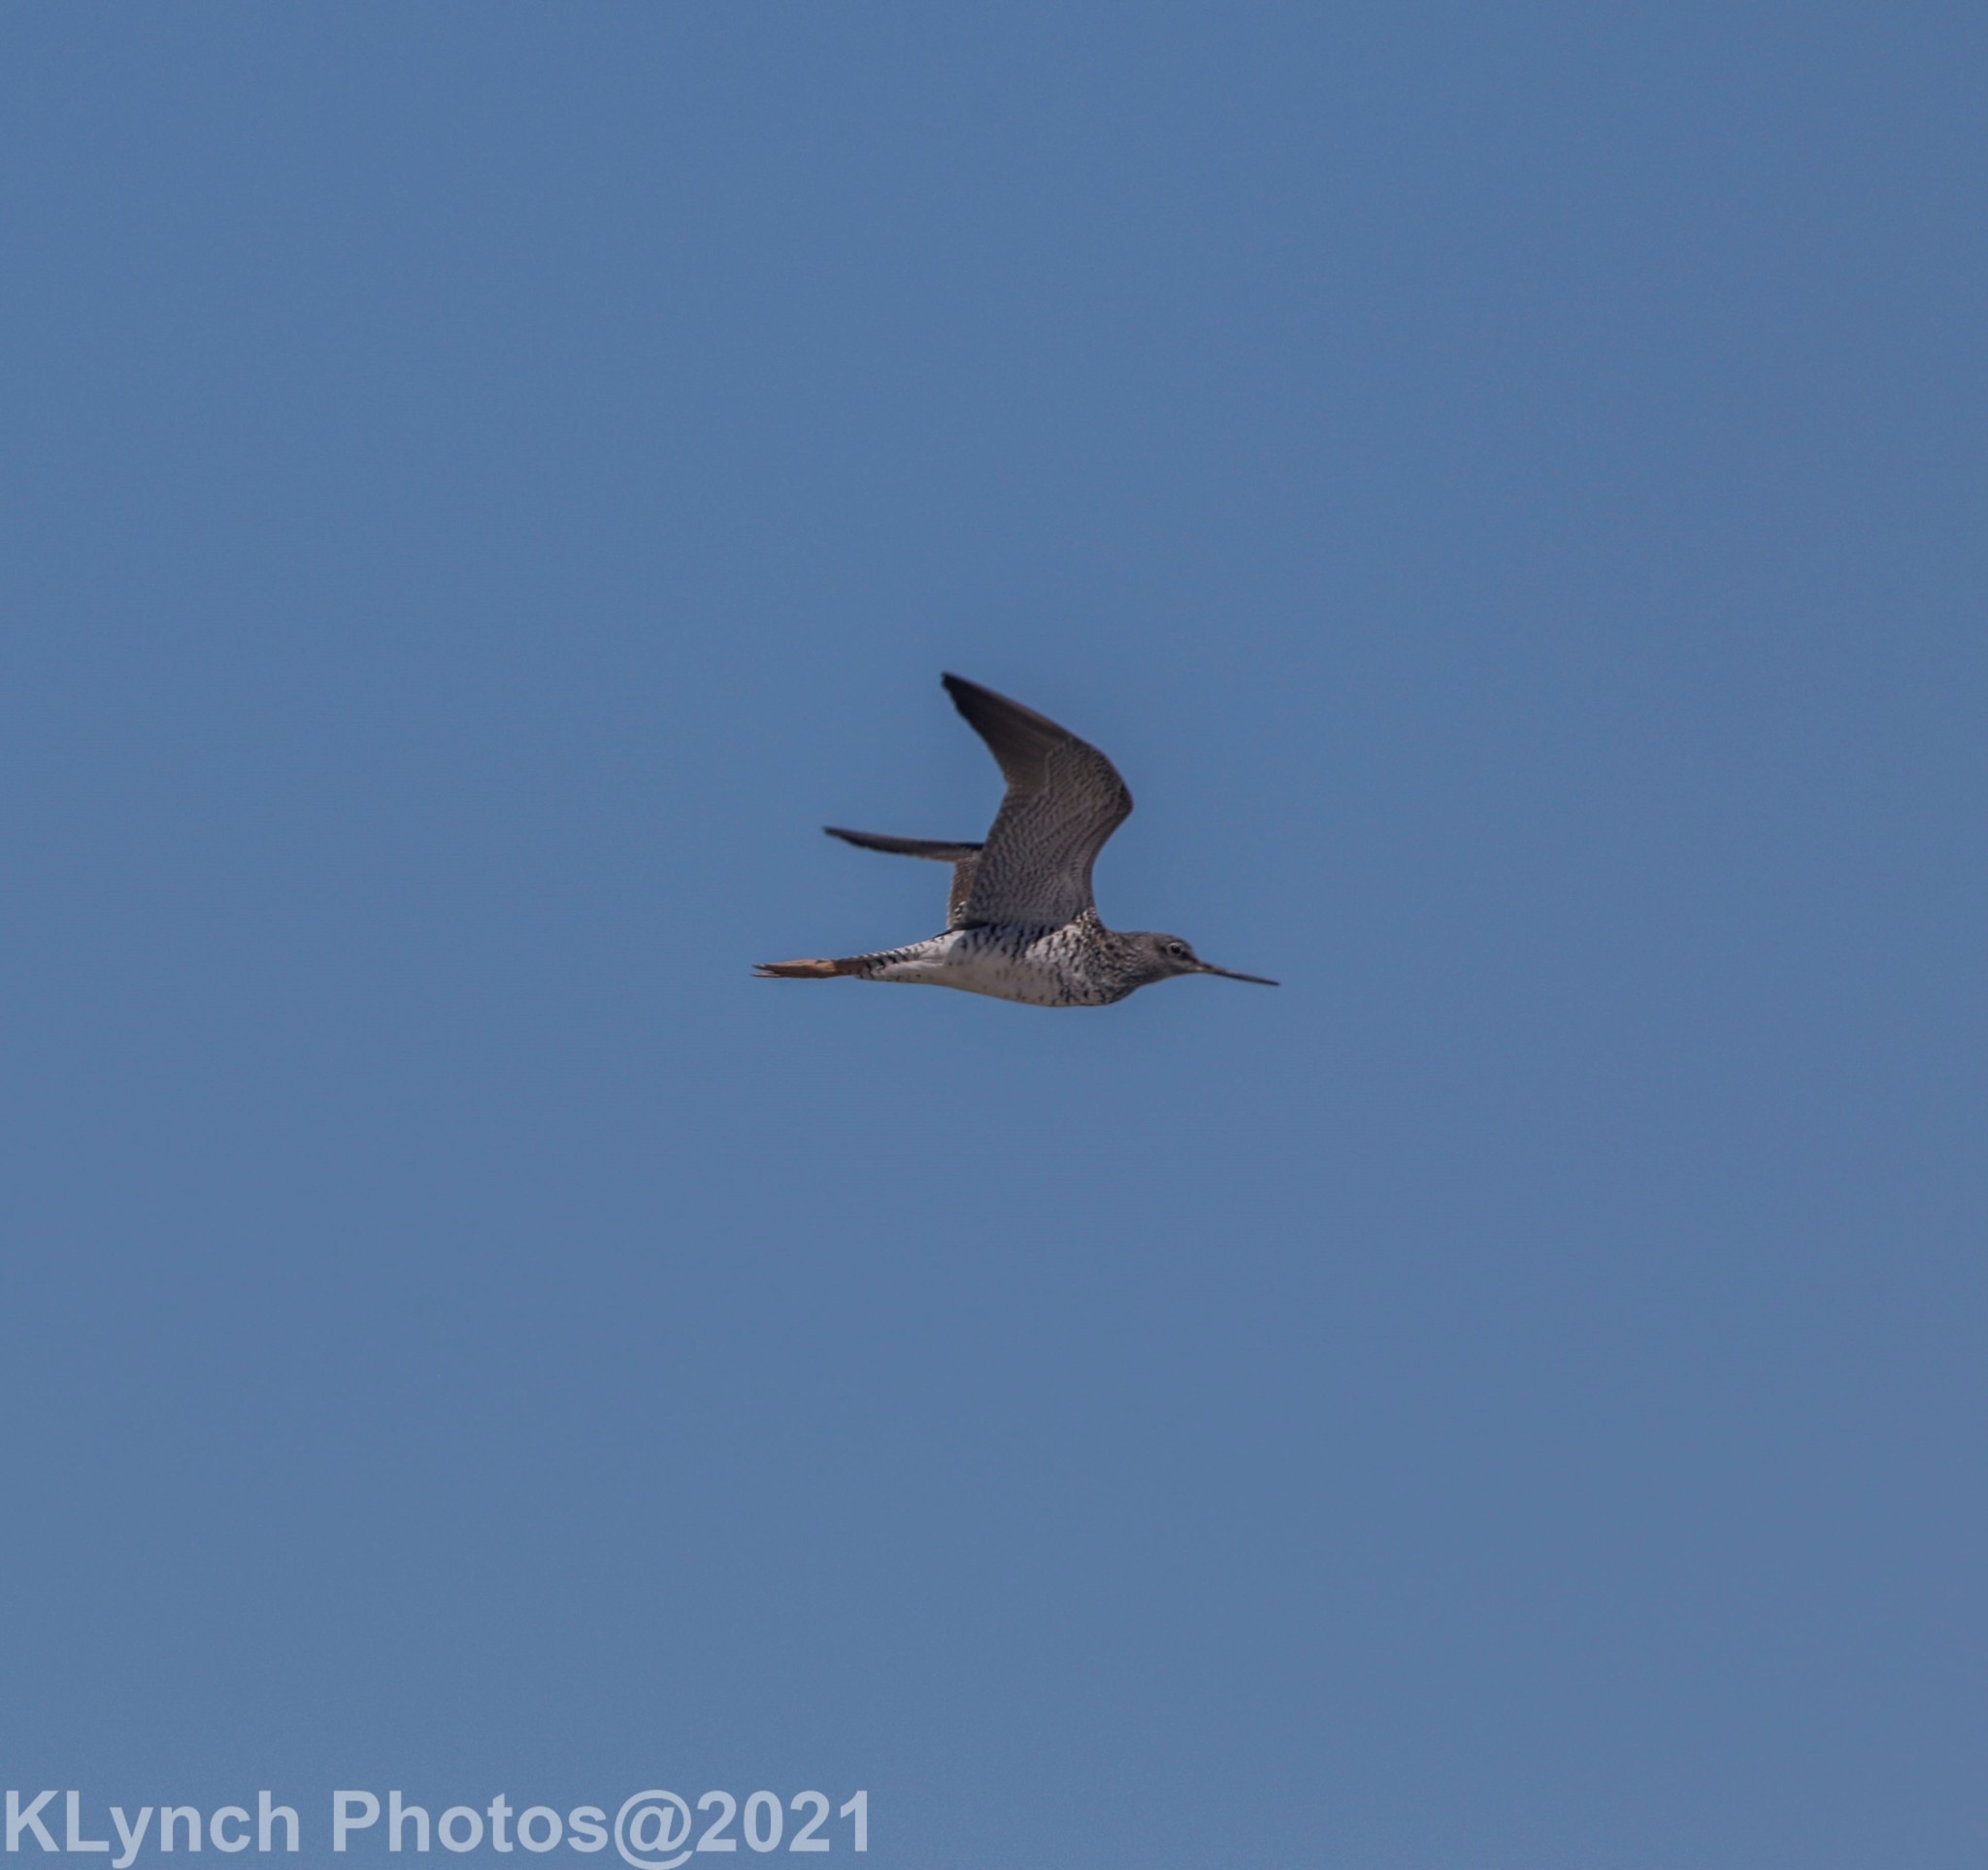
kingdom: Animalia
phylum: Chordata
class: Aves
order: Charadriiformes
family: Scolopacidae
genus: Tringa
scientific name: Tringa melanoleuca
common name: Greater yellowlegs
